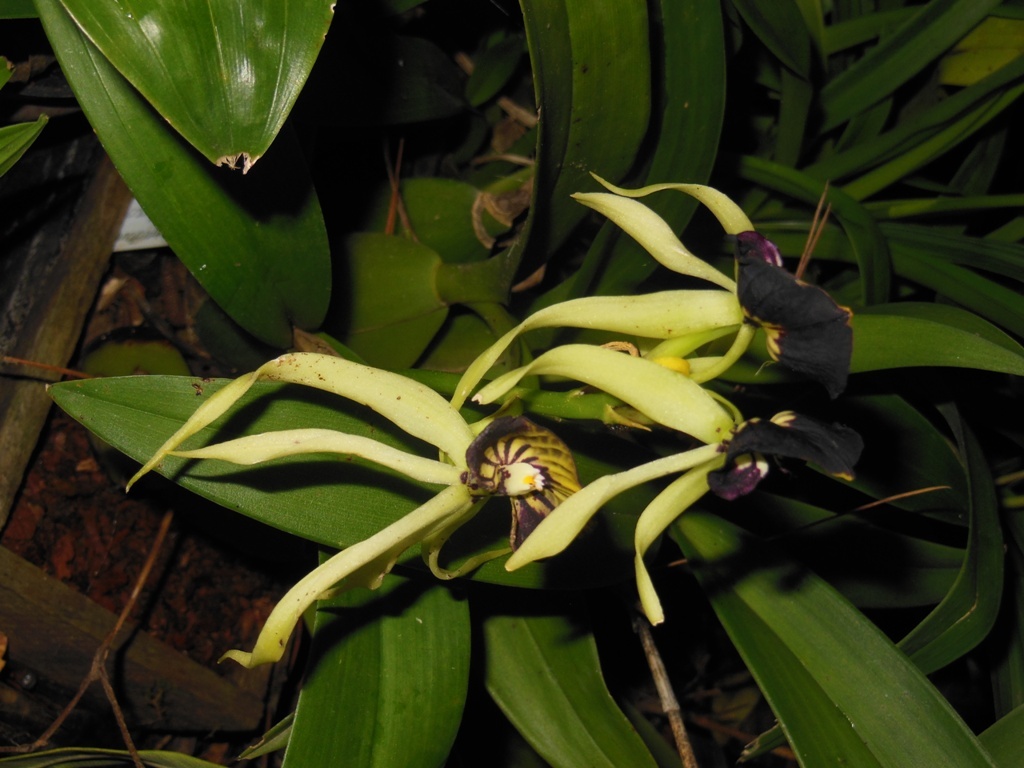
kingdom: Plantae
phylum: Tracheophyta
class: Liliopsida
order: Asparagales
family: Orchidaceae
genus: Prosthechea
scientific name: Prosthechea cochleata
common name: Clamshell orchid
